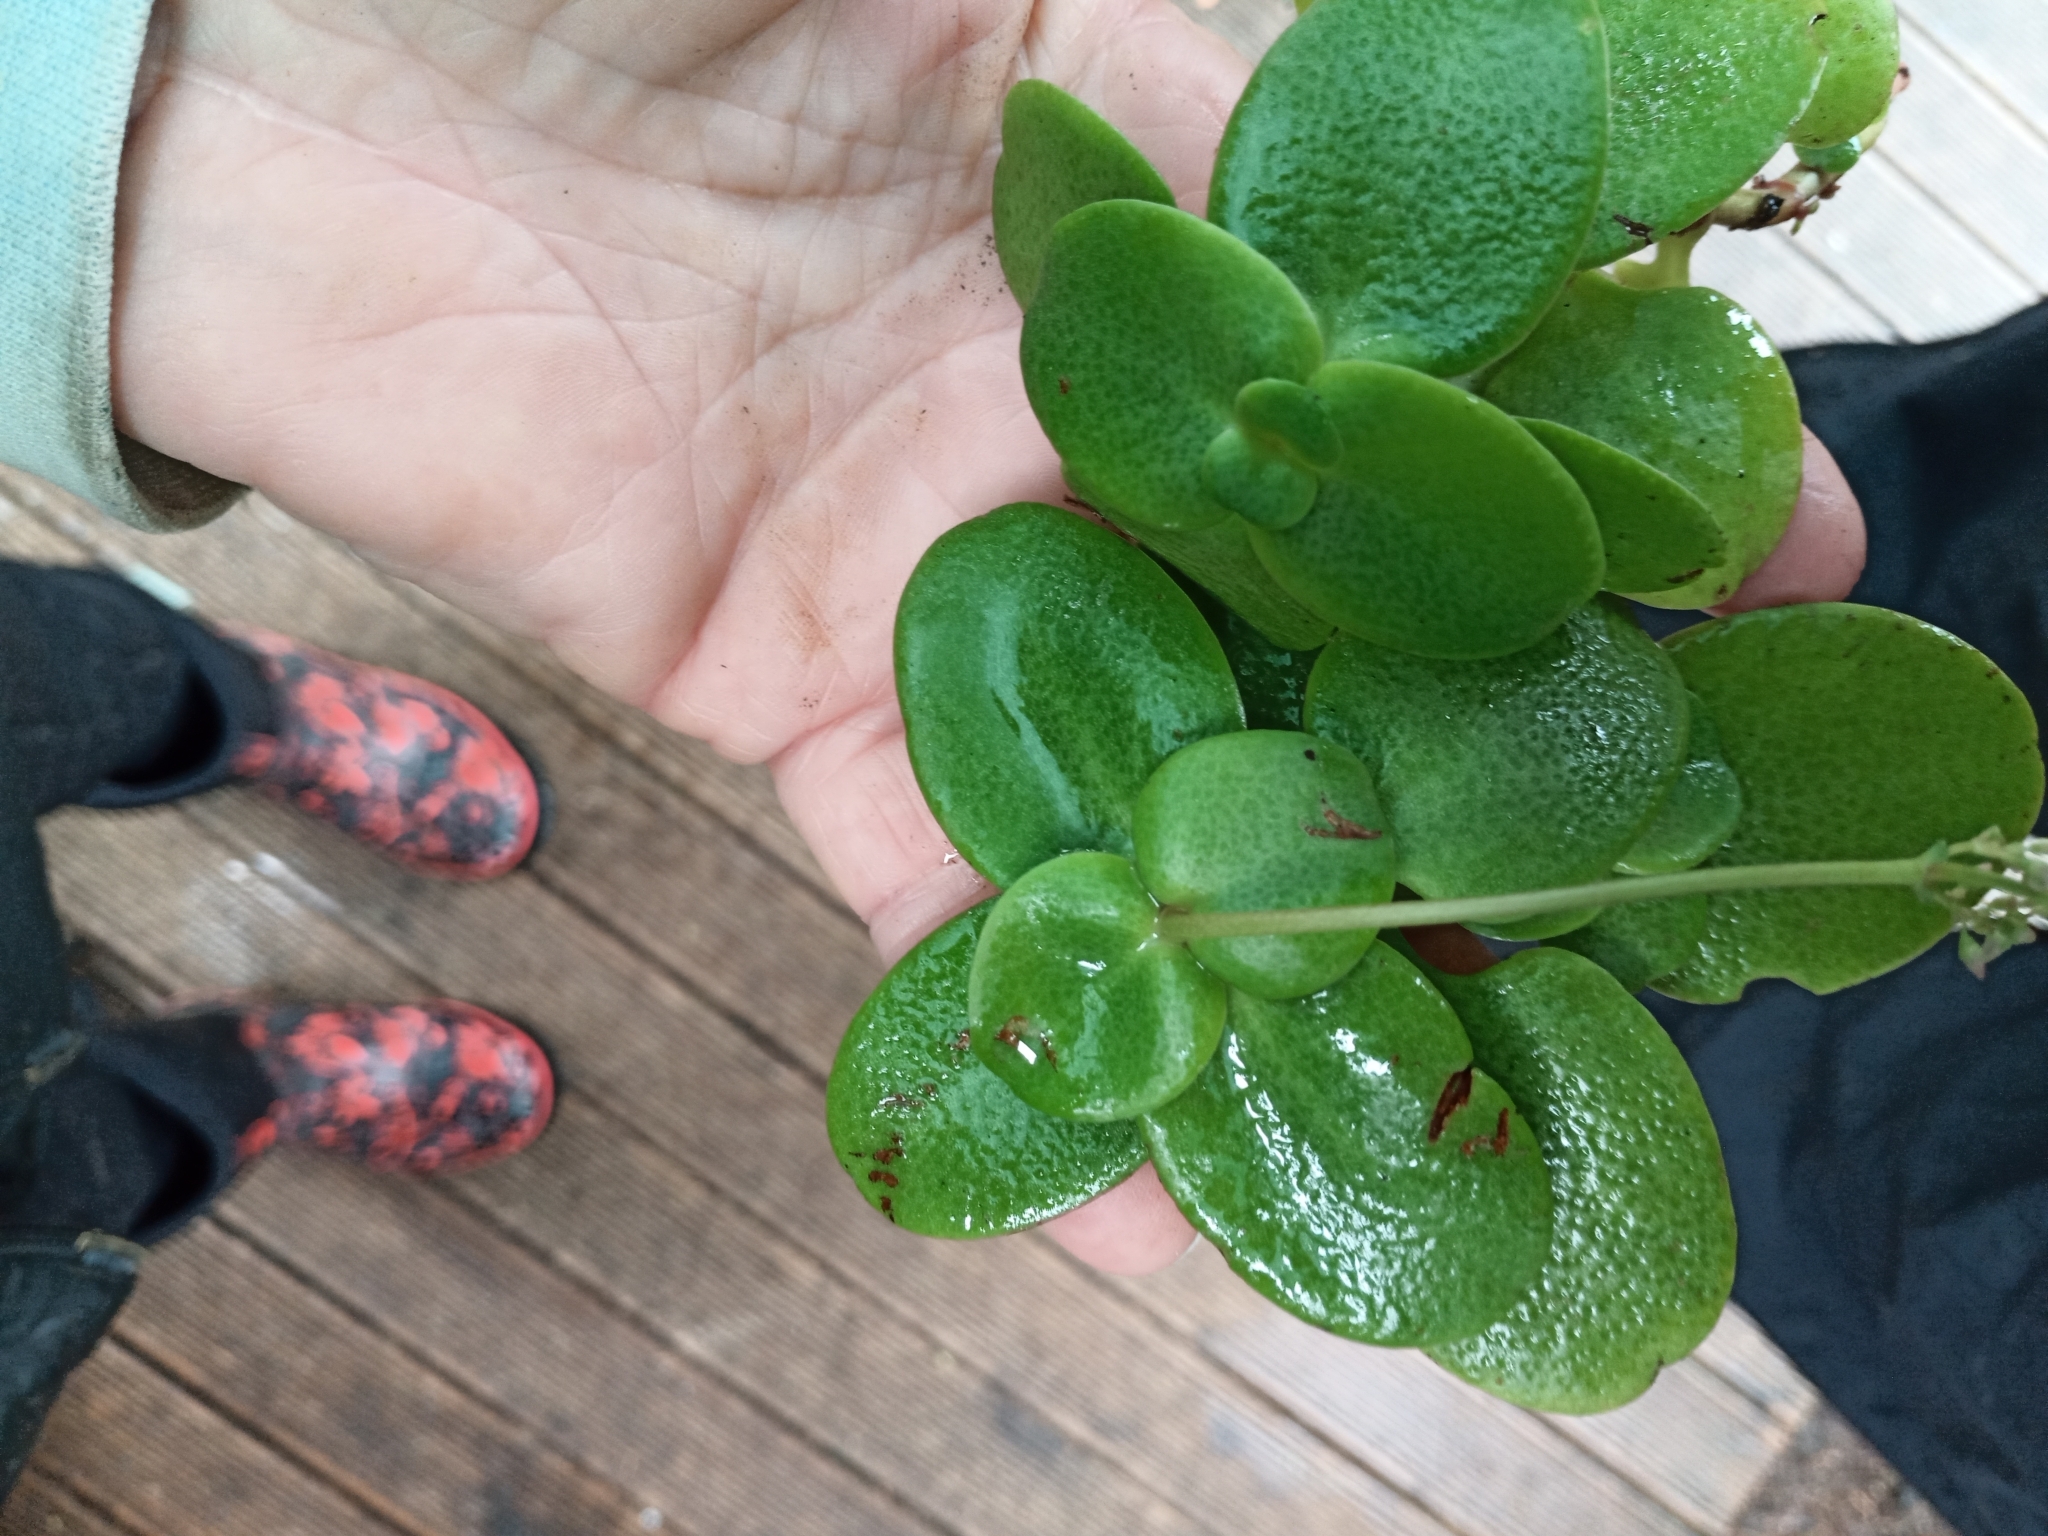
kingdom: Plantae
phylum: Tracheophyta
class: Magnoliopsida
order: Saxifragales
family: Crassulaceae
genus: Crassula
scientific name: Crassula multicava
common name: Cape province pygmyweed
